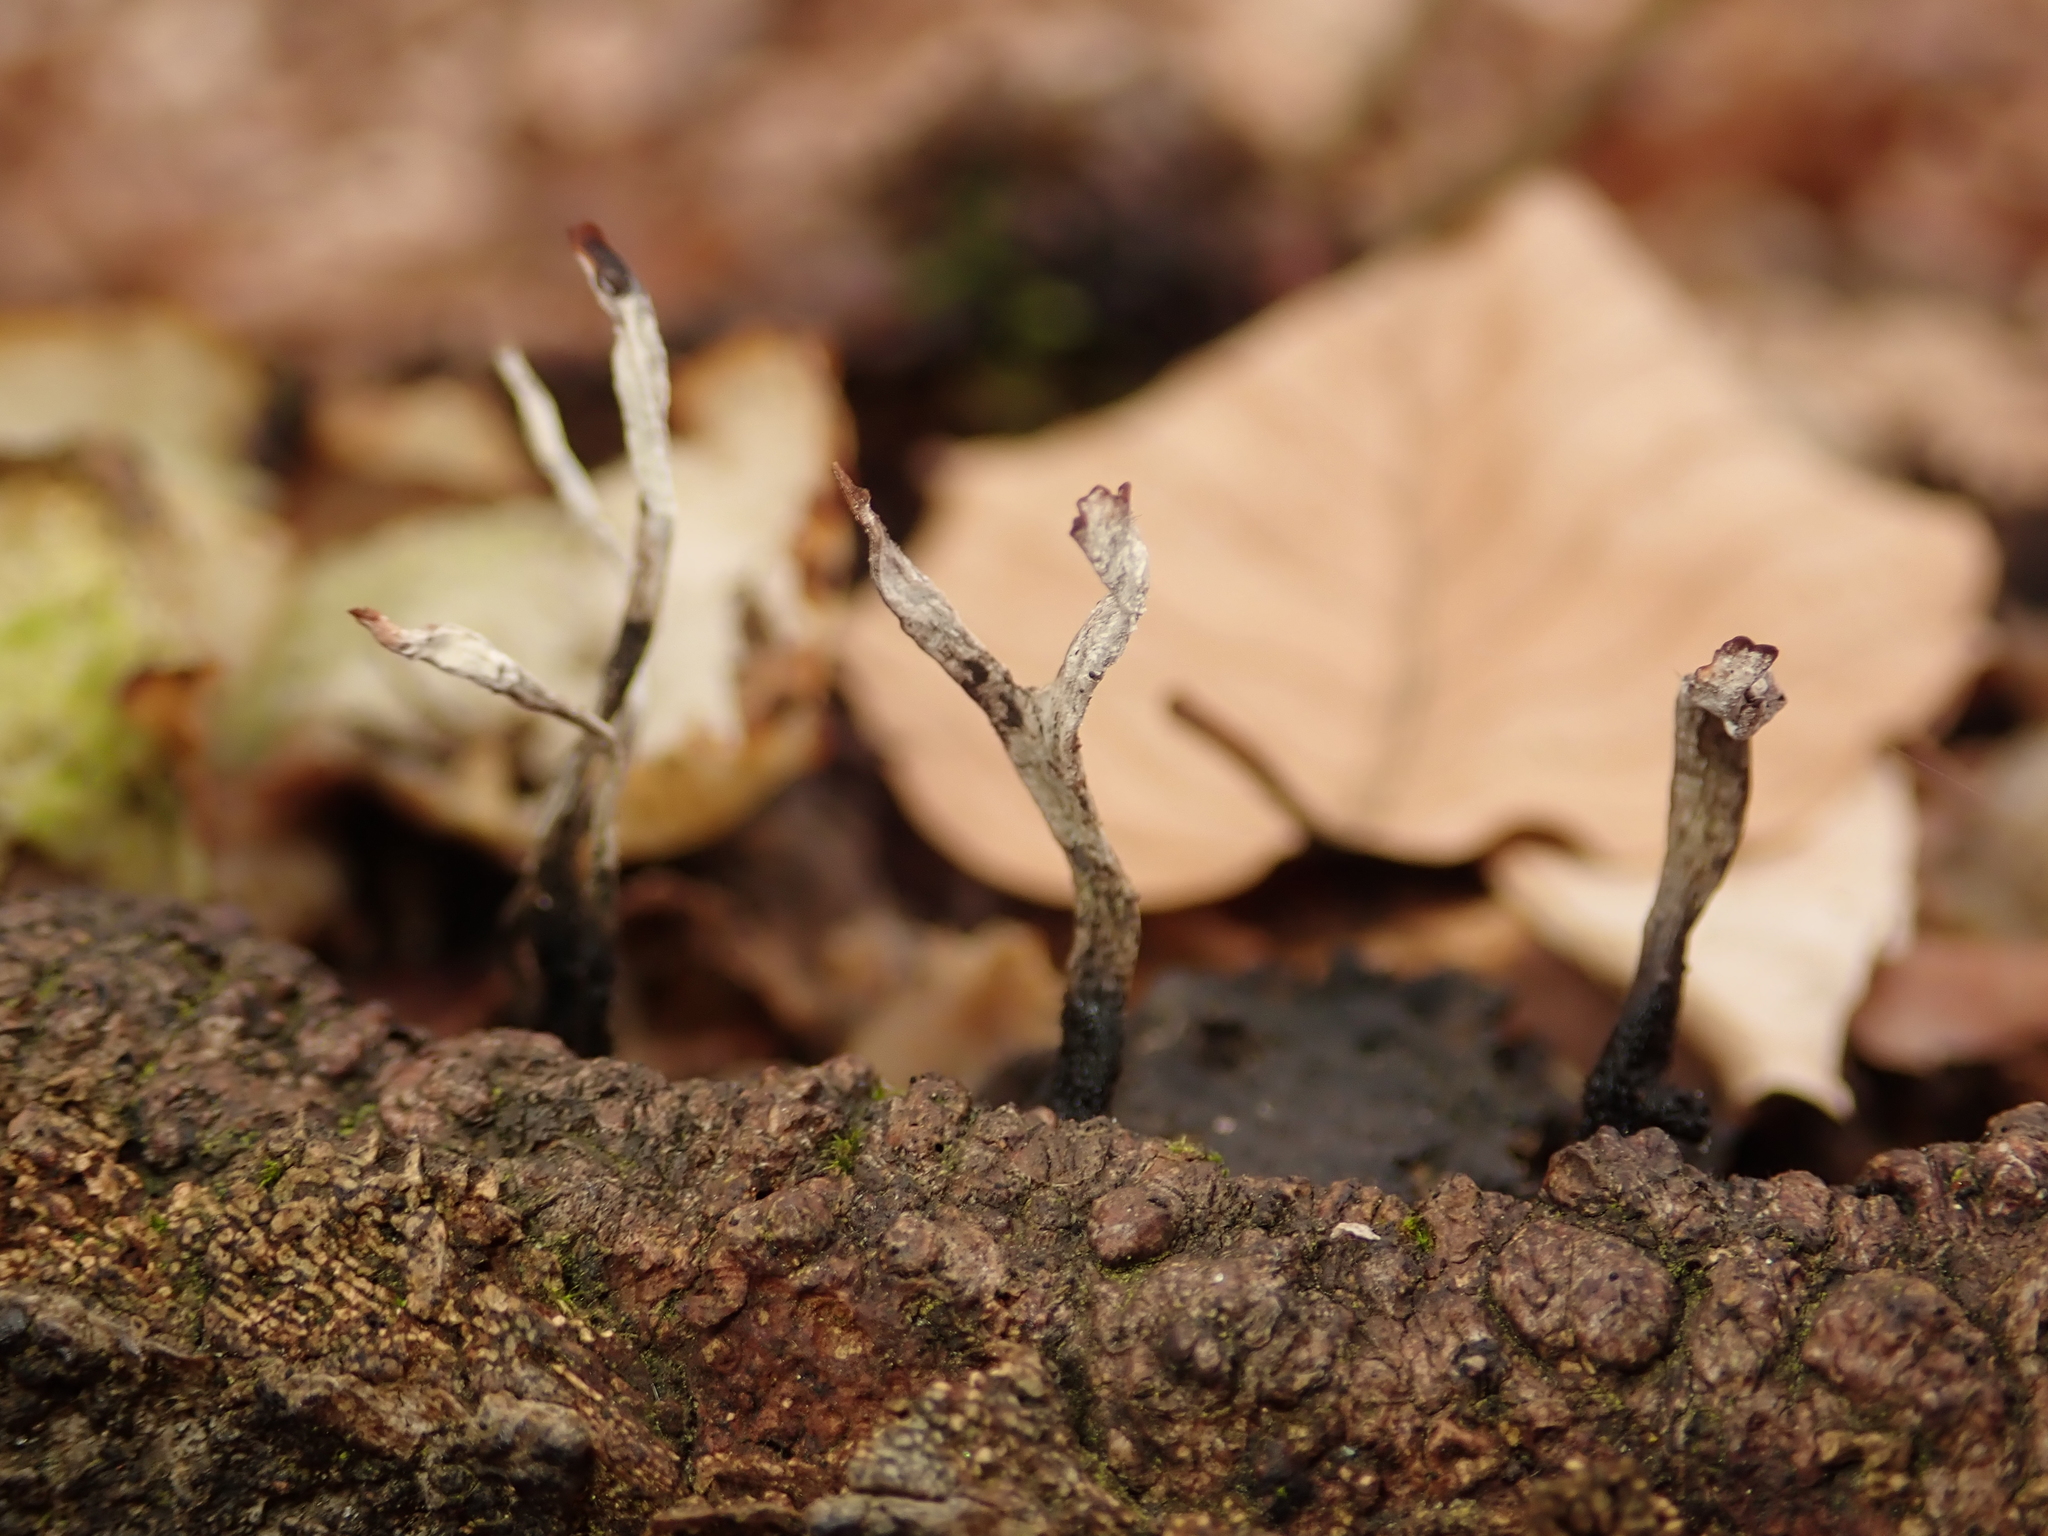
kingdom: Fungi
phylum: Ascomycota
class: Sordariomycetes
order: Xylariales
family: Xylariaceae
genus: Xylaria
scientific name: Xylaria hypoxylon
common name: Candle-snuff fungus
